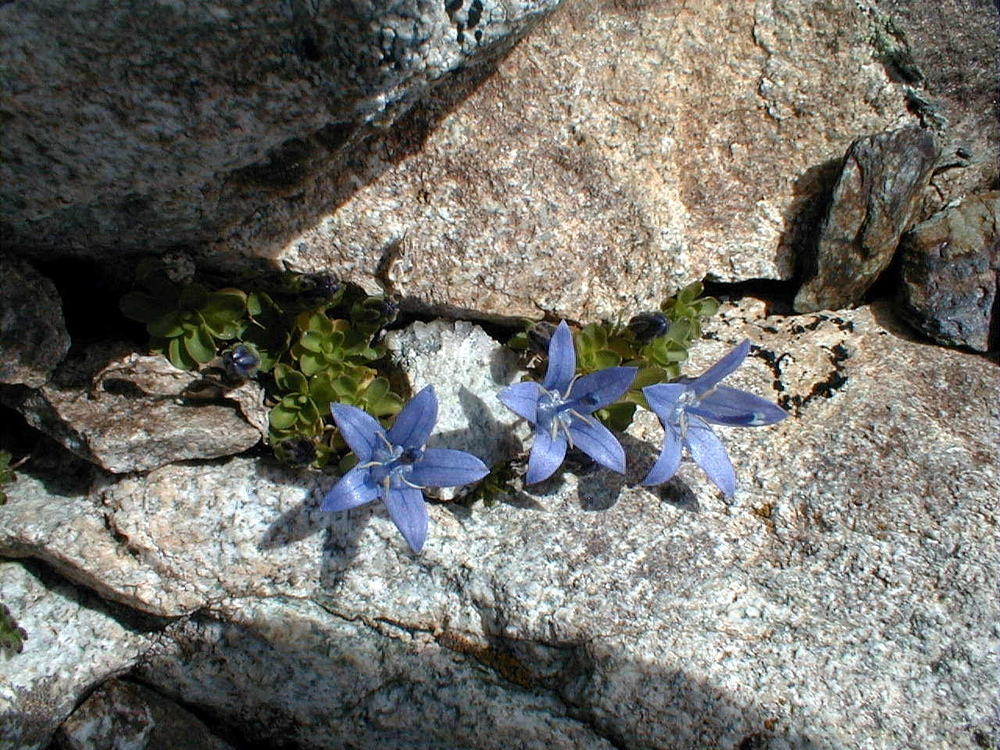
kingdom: Plantae
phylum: Tracheophyta
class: Magnoliopsida
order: Asterales
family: Campanulaceae
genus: Campanula
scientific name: Campanula cenisia
